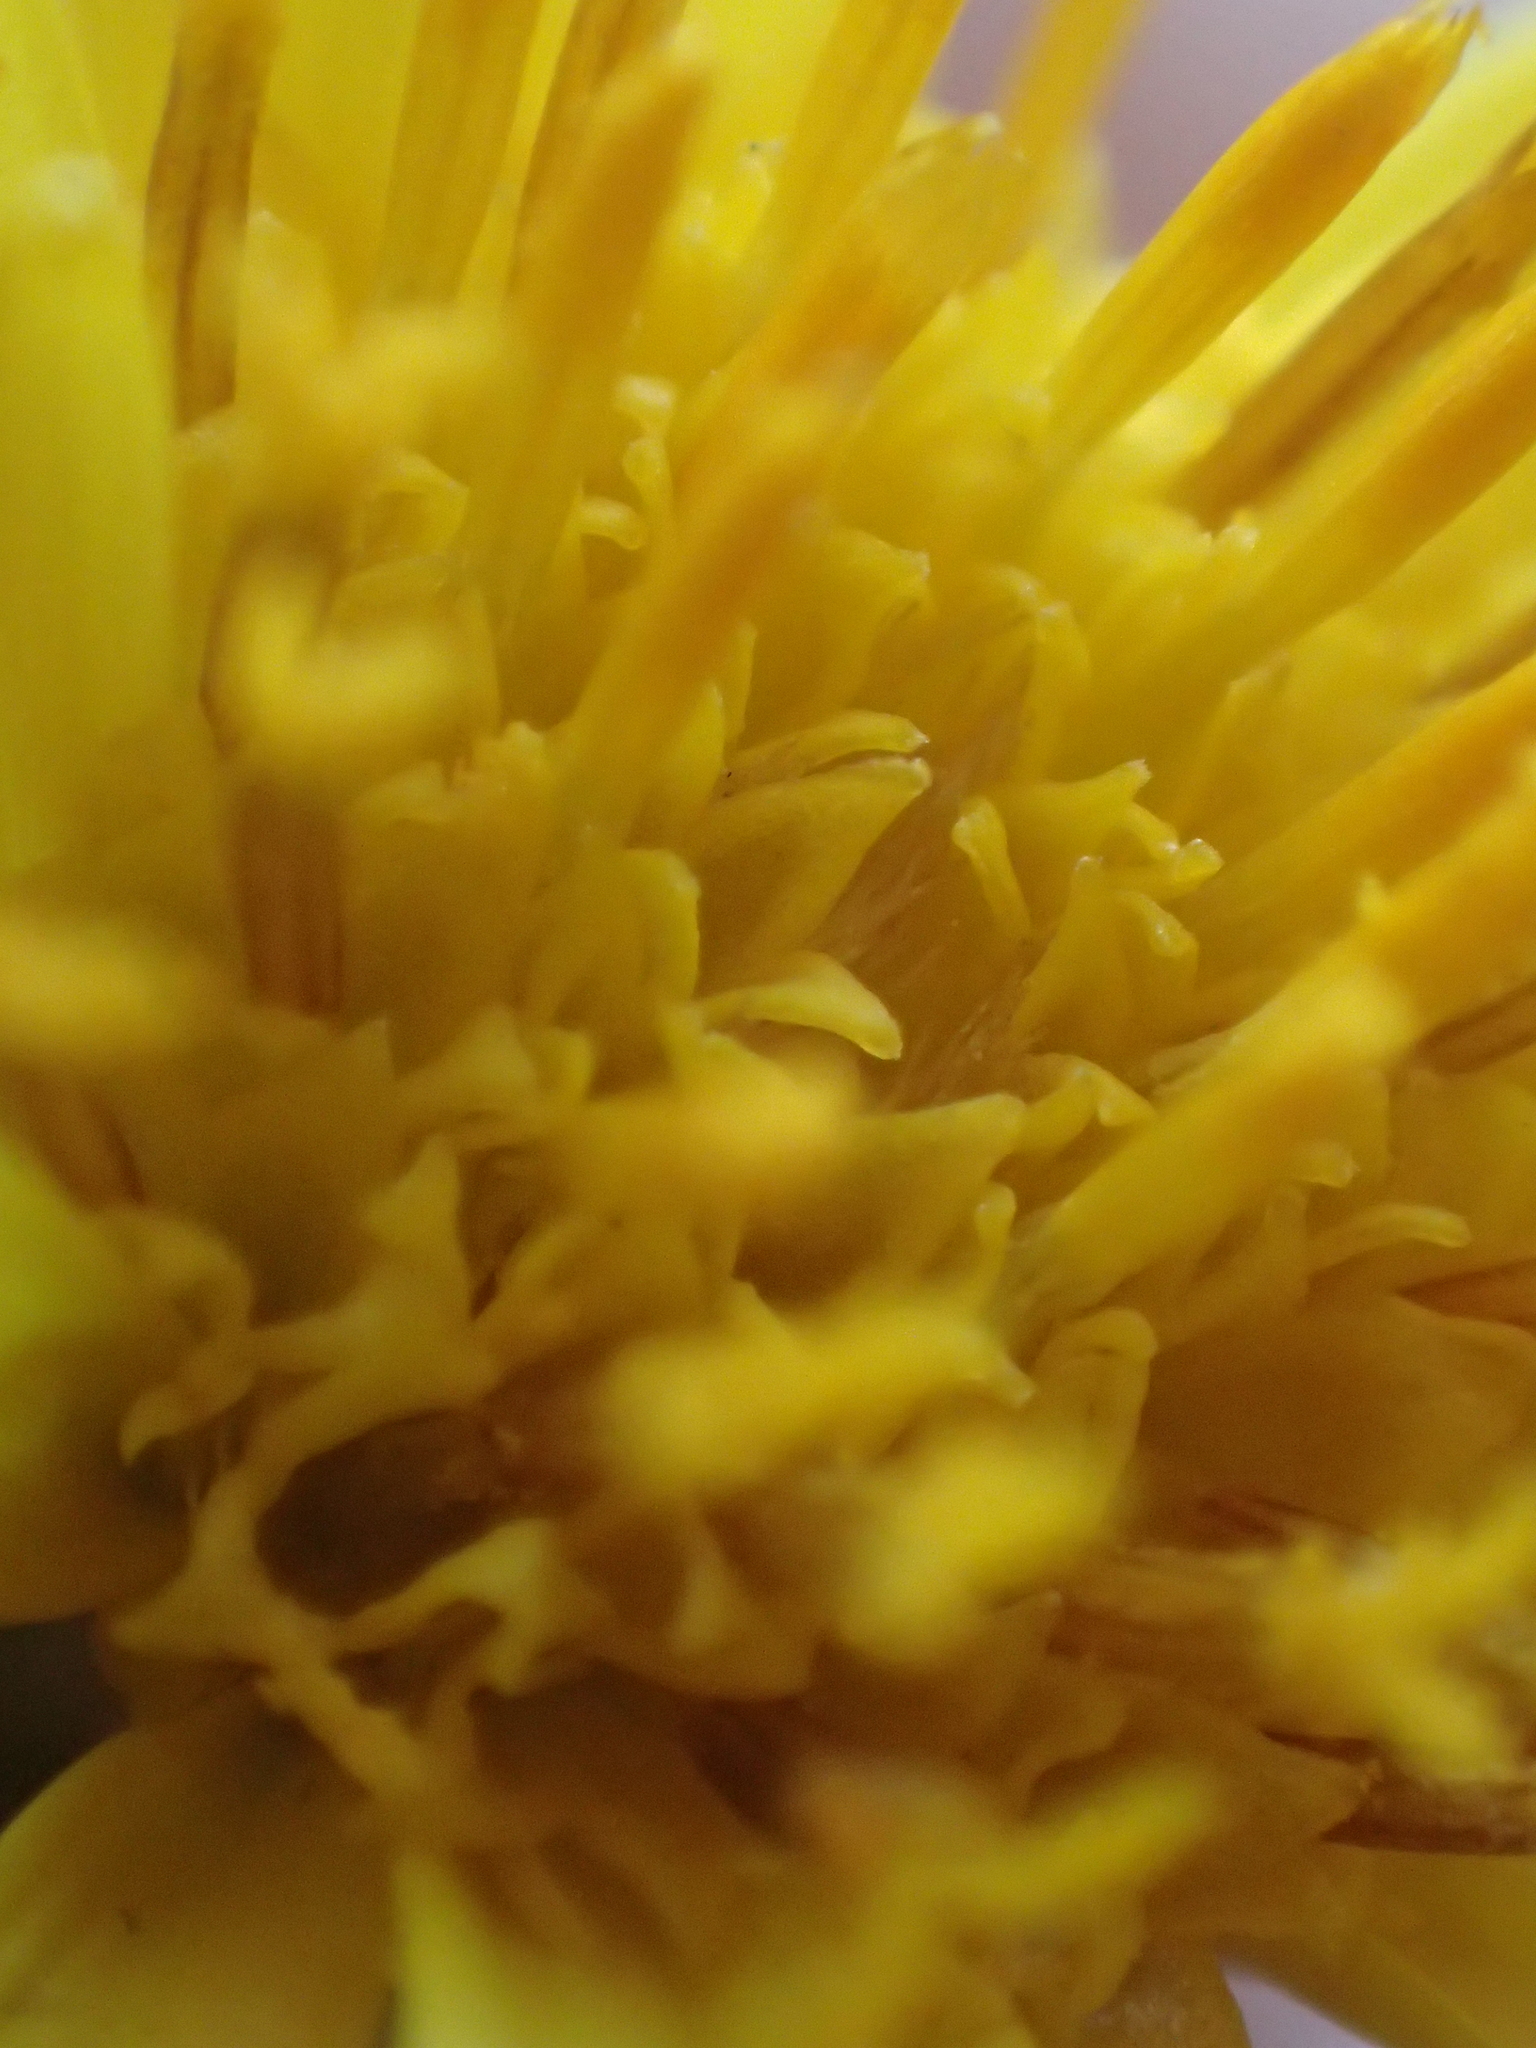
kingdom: Plantae
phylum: Tracheophyta
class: Magnoliopsida
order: Asterales
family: Asteraceae
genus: Dittrichia
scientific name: Dittrichia viscosa
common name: Woody fleabane
